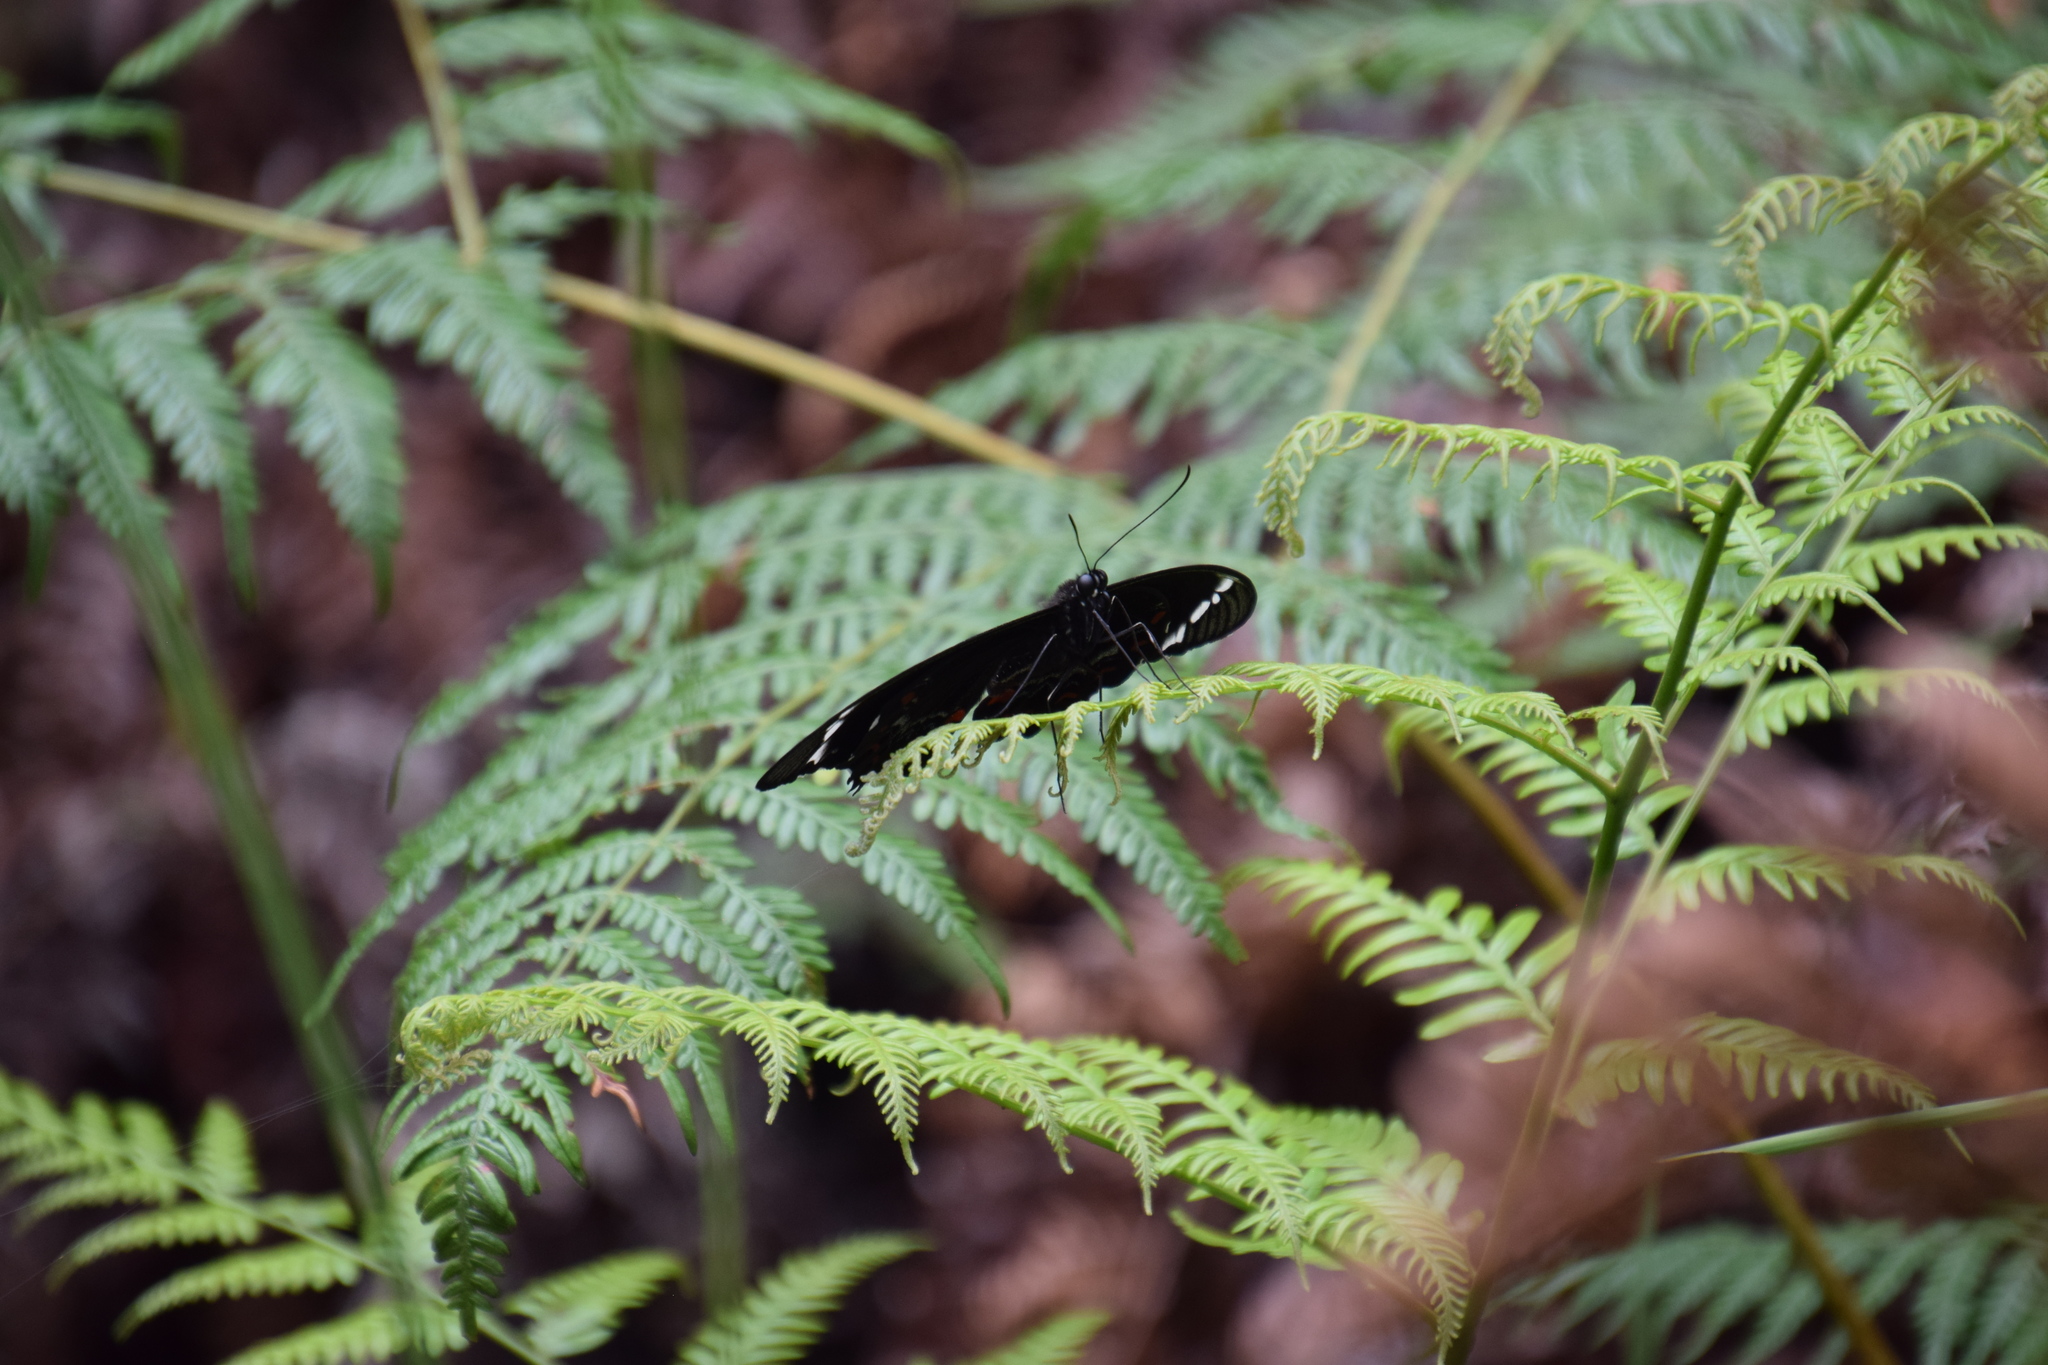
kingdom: Animalia
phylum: Arthropoda
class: Insecta
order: Lepidoptera
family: Papilionidae
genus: Papilio
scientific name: Papilio aegeus
